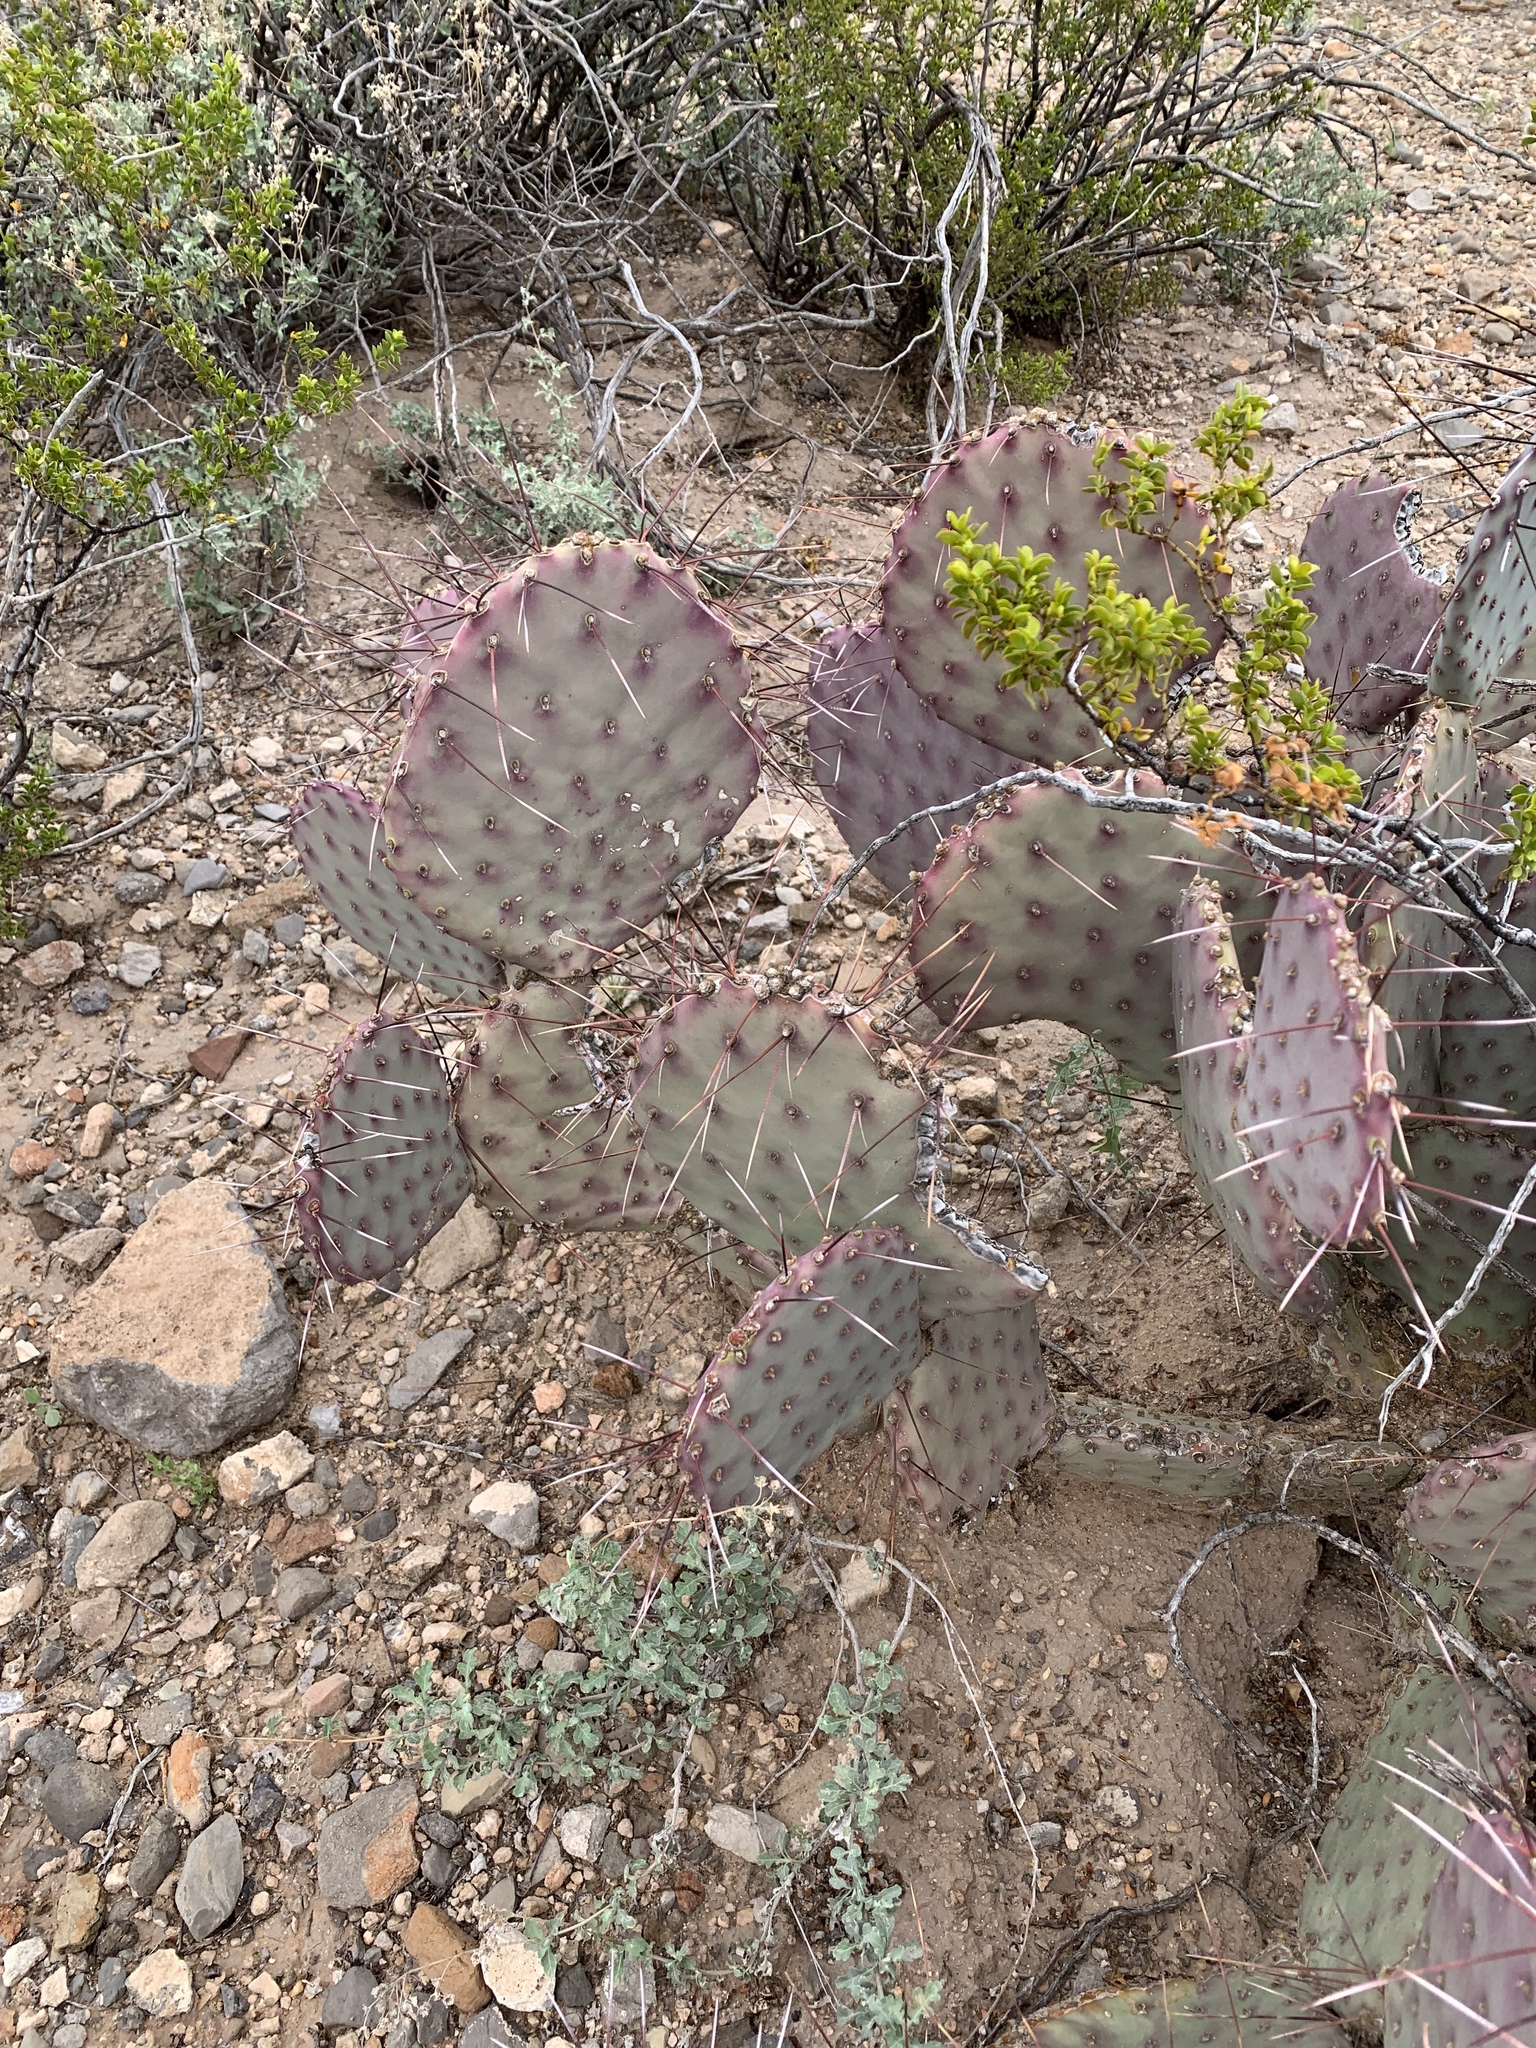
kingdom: Plantae
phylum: Tracheophyta
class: Magnoliopsida
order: Caryophyllales
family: Cactaceae
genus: Opuntia
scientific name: Opuntia macrocentra
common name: Purple prickly-pear
